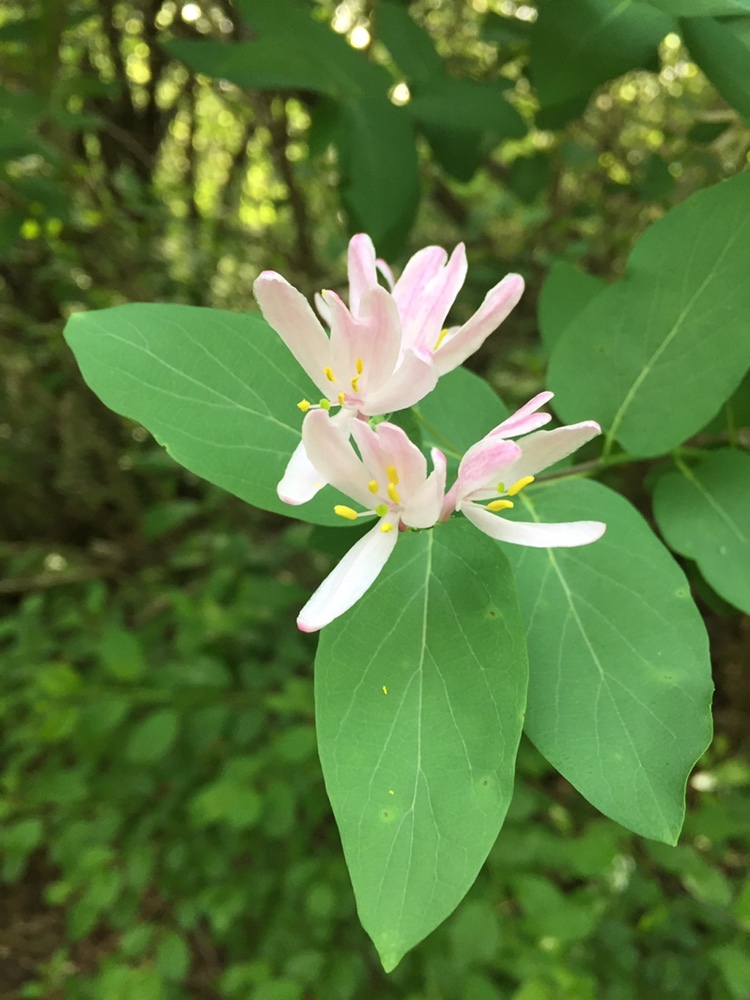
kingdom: Plantae
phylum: Tracheophyta
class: Magnoliopsida
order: Dipsacales
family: Caprifoliaceae
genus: Lonicera
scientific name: Lonicera tatarica
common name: Tatarian honeysuckle
